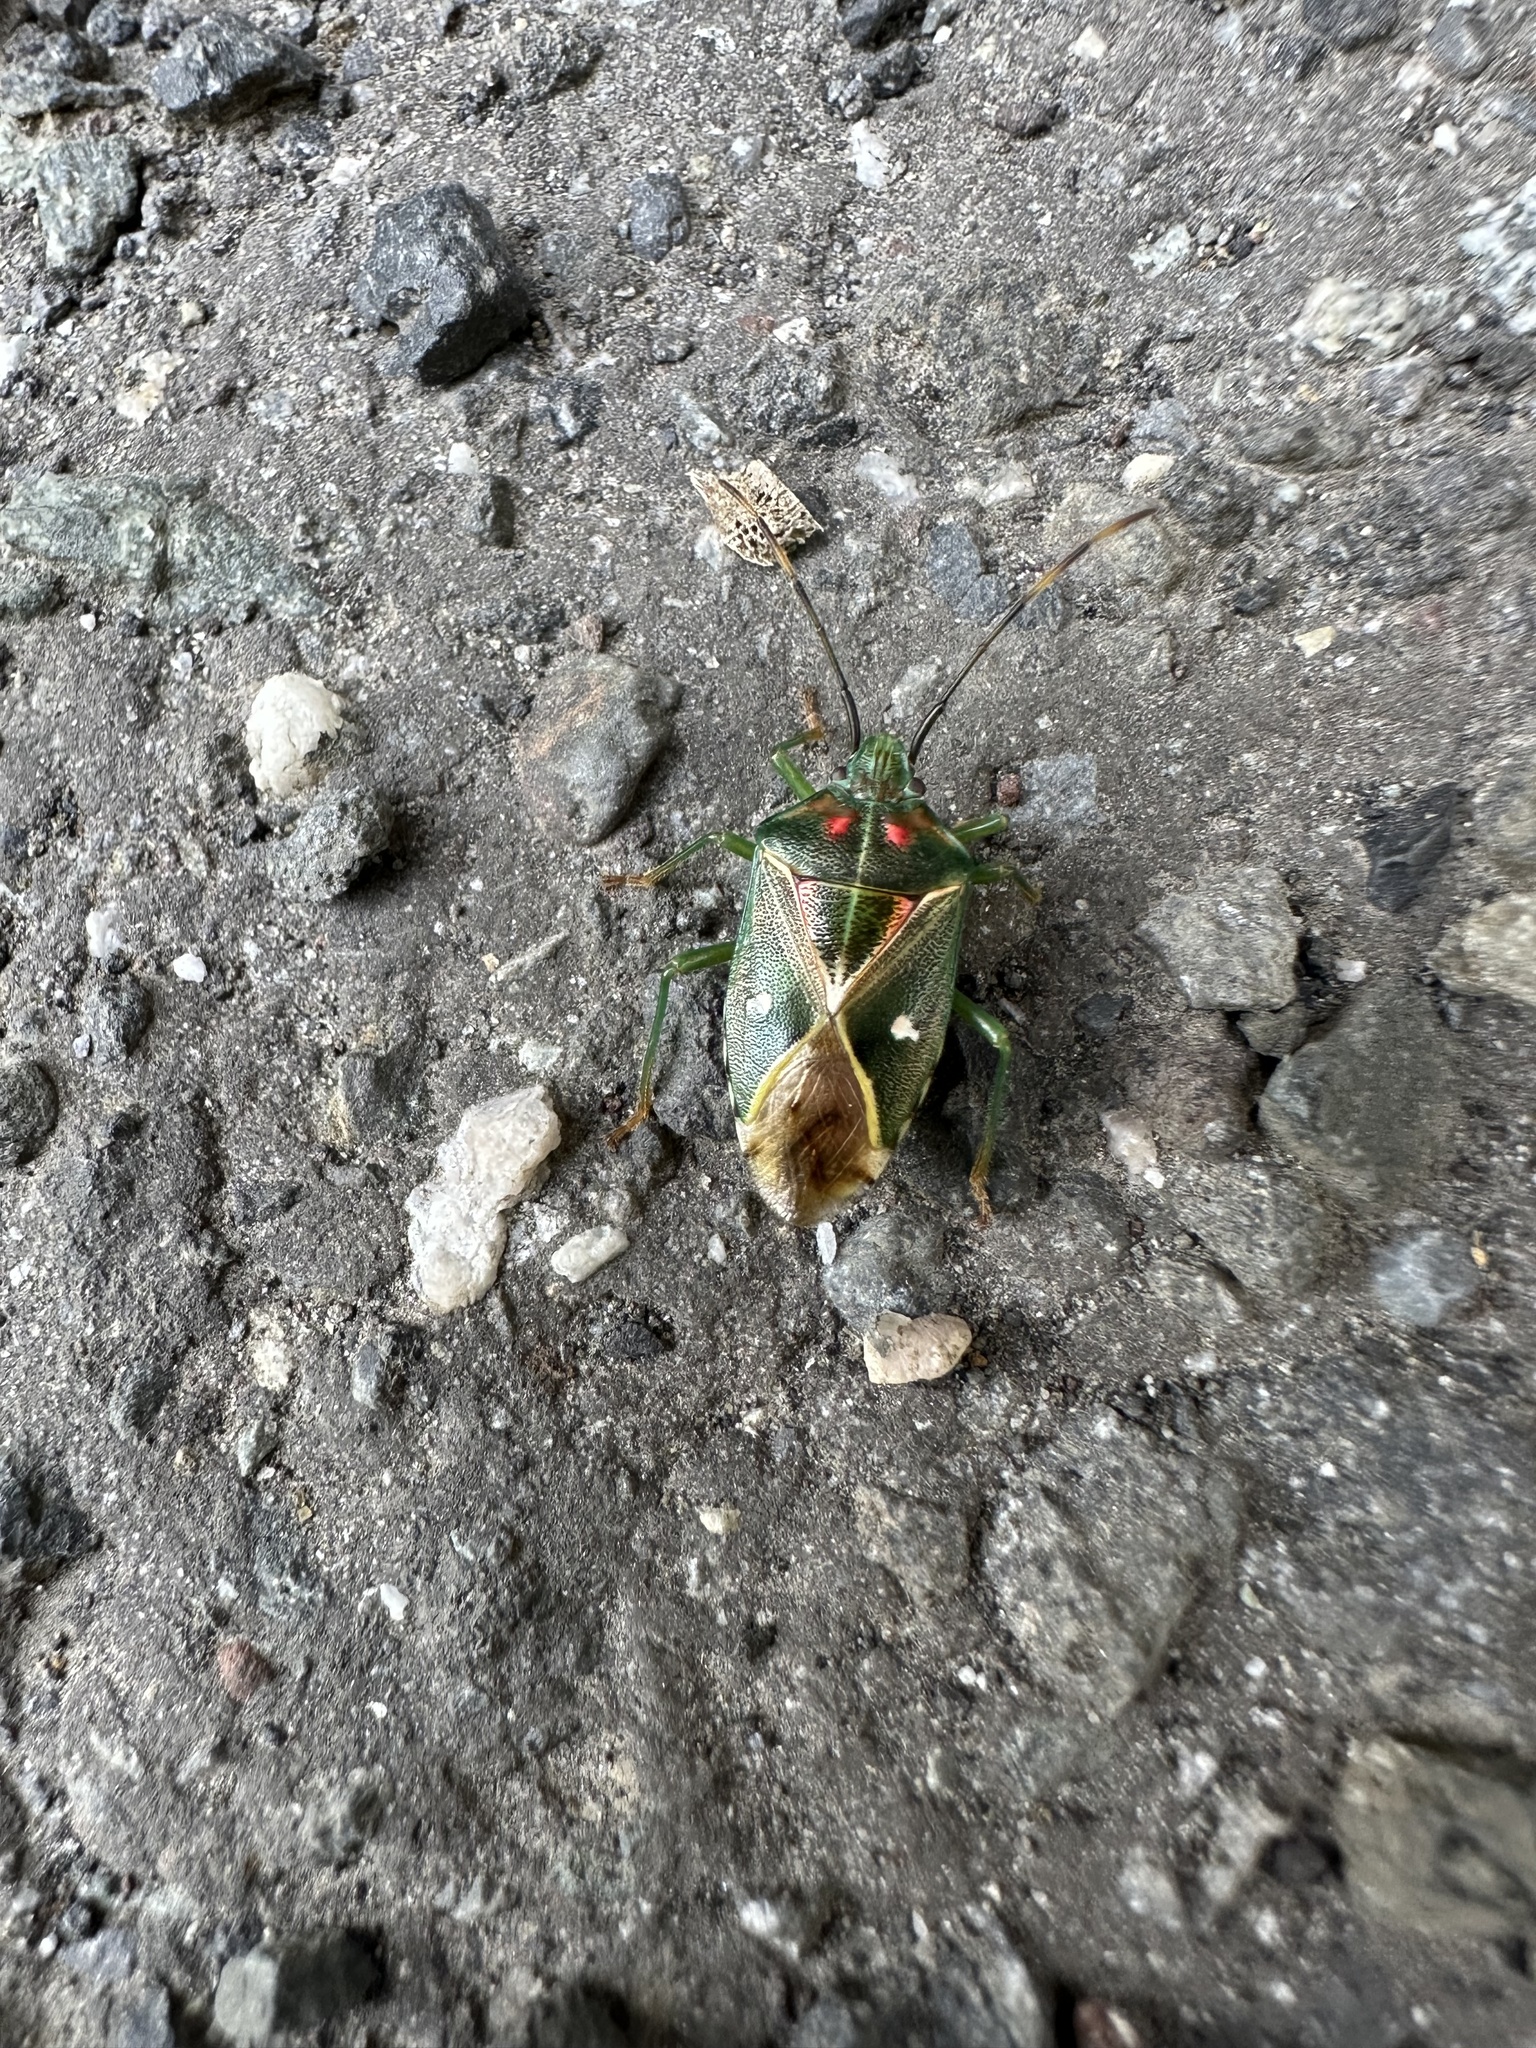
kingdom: Animalia
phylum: Arthropoda
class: Insecta
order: Hemiptera
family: Acanthosomatidae
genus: Planois
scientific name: Planois gayi
